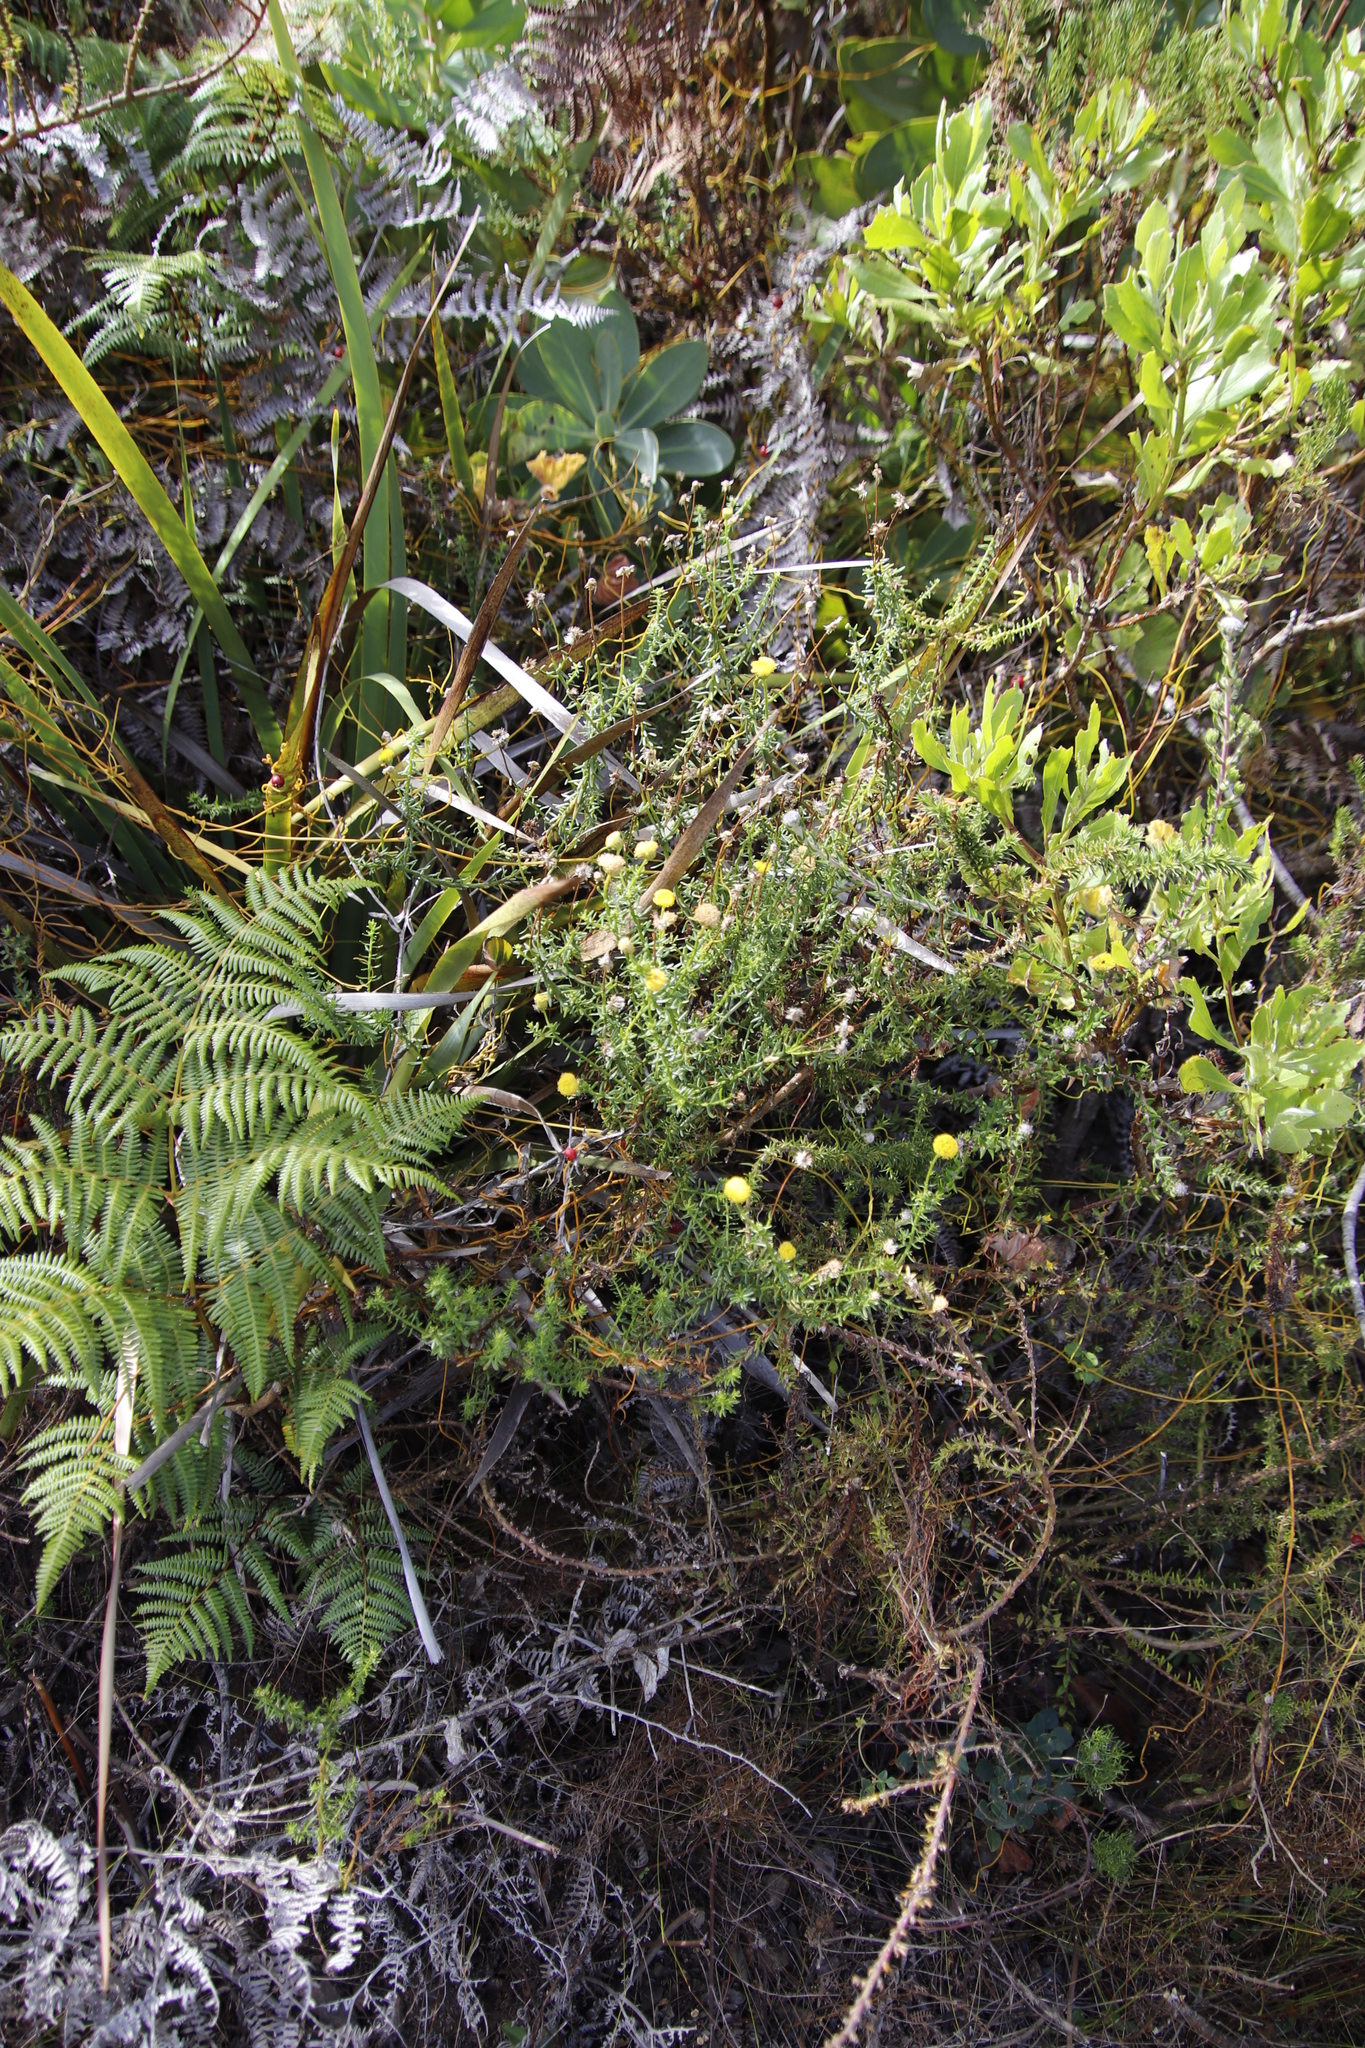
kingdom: Plantae
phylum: Tracheophyta
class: Magnoliopsida
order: Asterales
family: Asteraceae
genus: Chrysocoma
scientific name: Chrysocoma cernua
